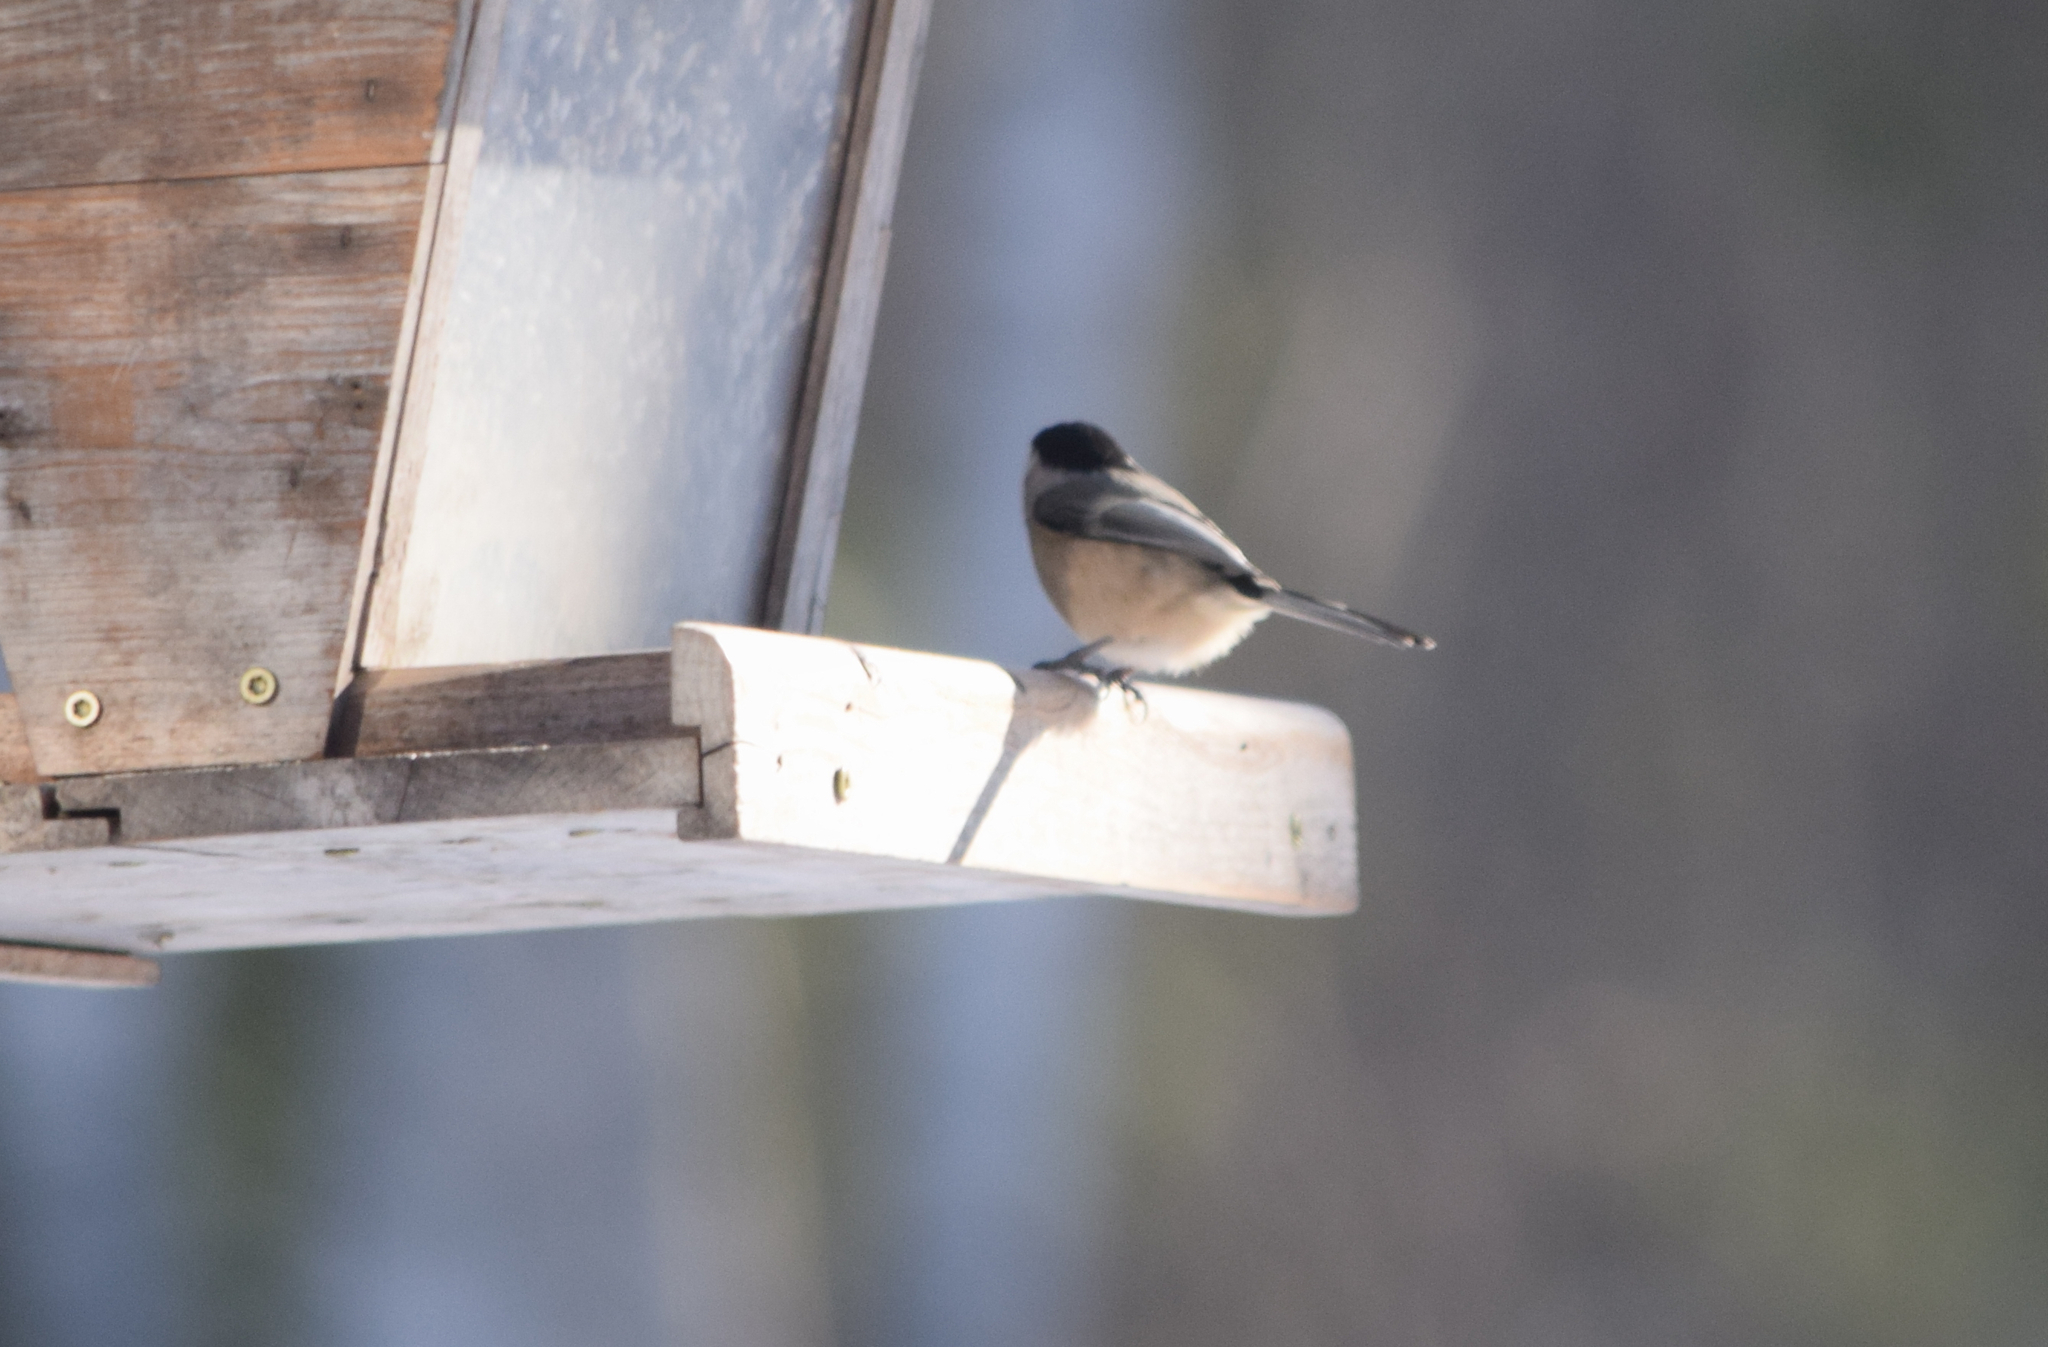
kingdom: Animalia
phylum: Chordata
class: Aves
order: Passeriformes
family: Paridae
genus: Poecile
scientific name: Poecile atricapillus
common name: Black-capped chickadee
